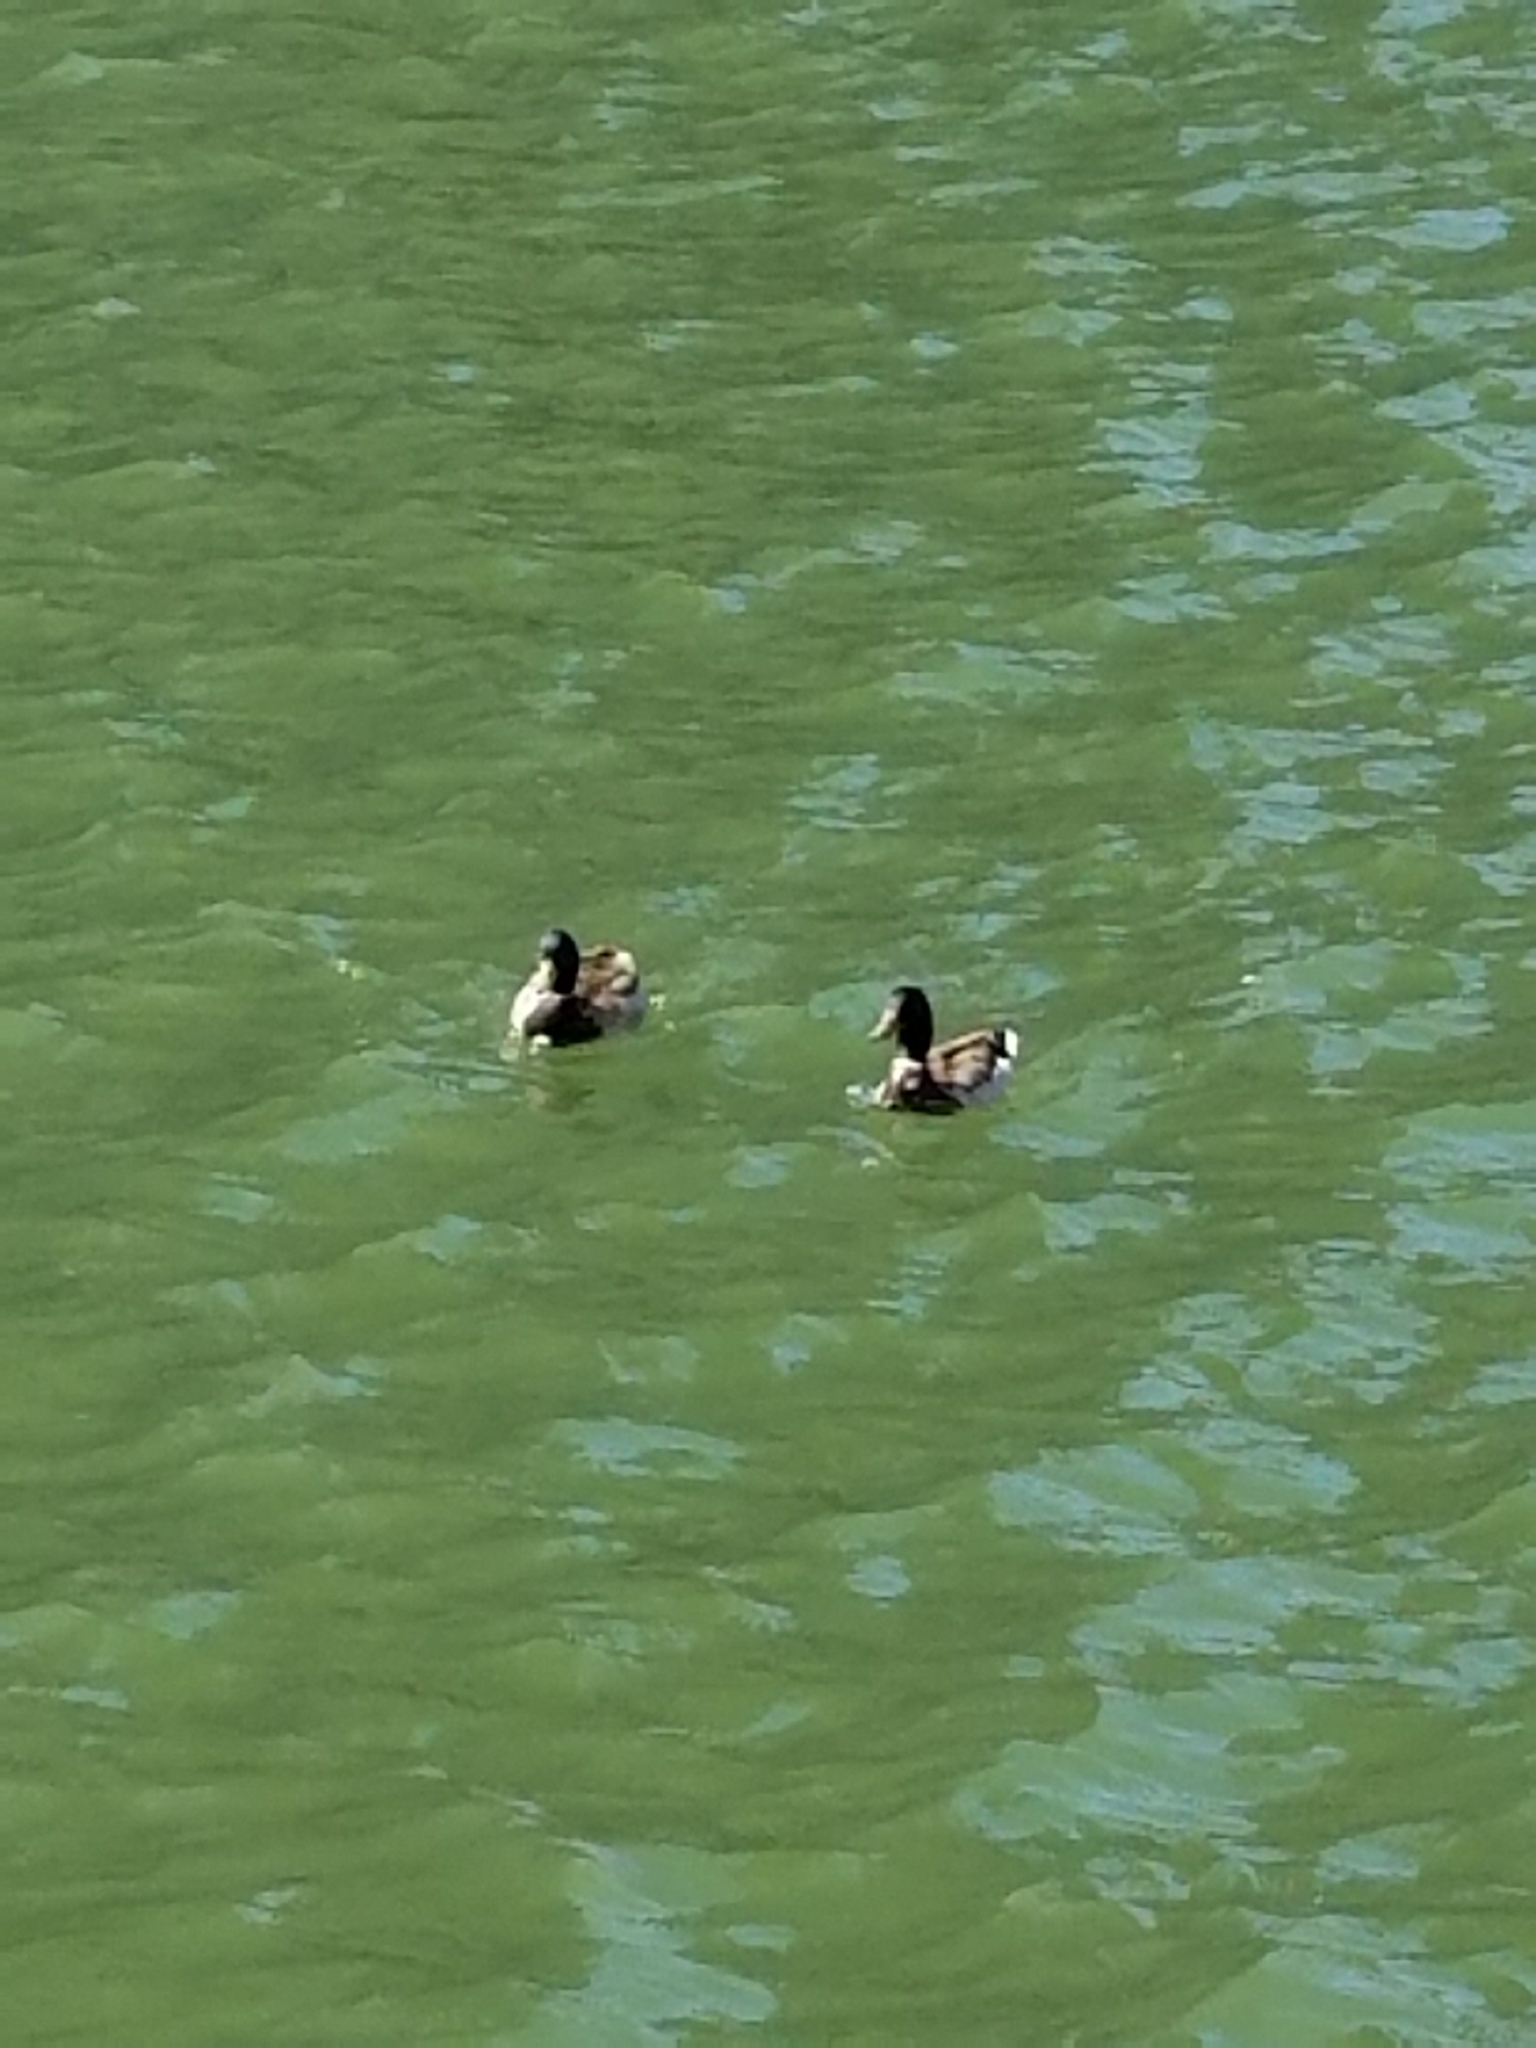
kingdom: Animalia
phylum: Chordata
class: Aves
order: Anseriformes
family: Anatidae
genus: Anas
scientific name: Anas platyrhynchos
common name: Mallard
